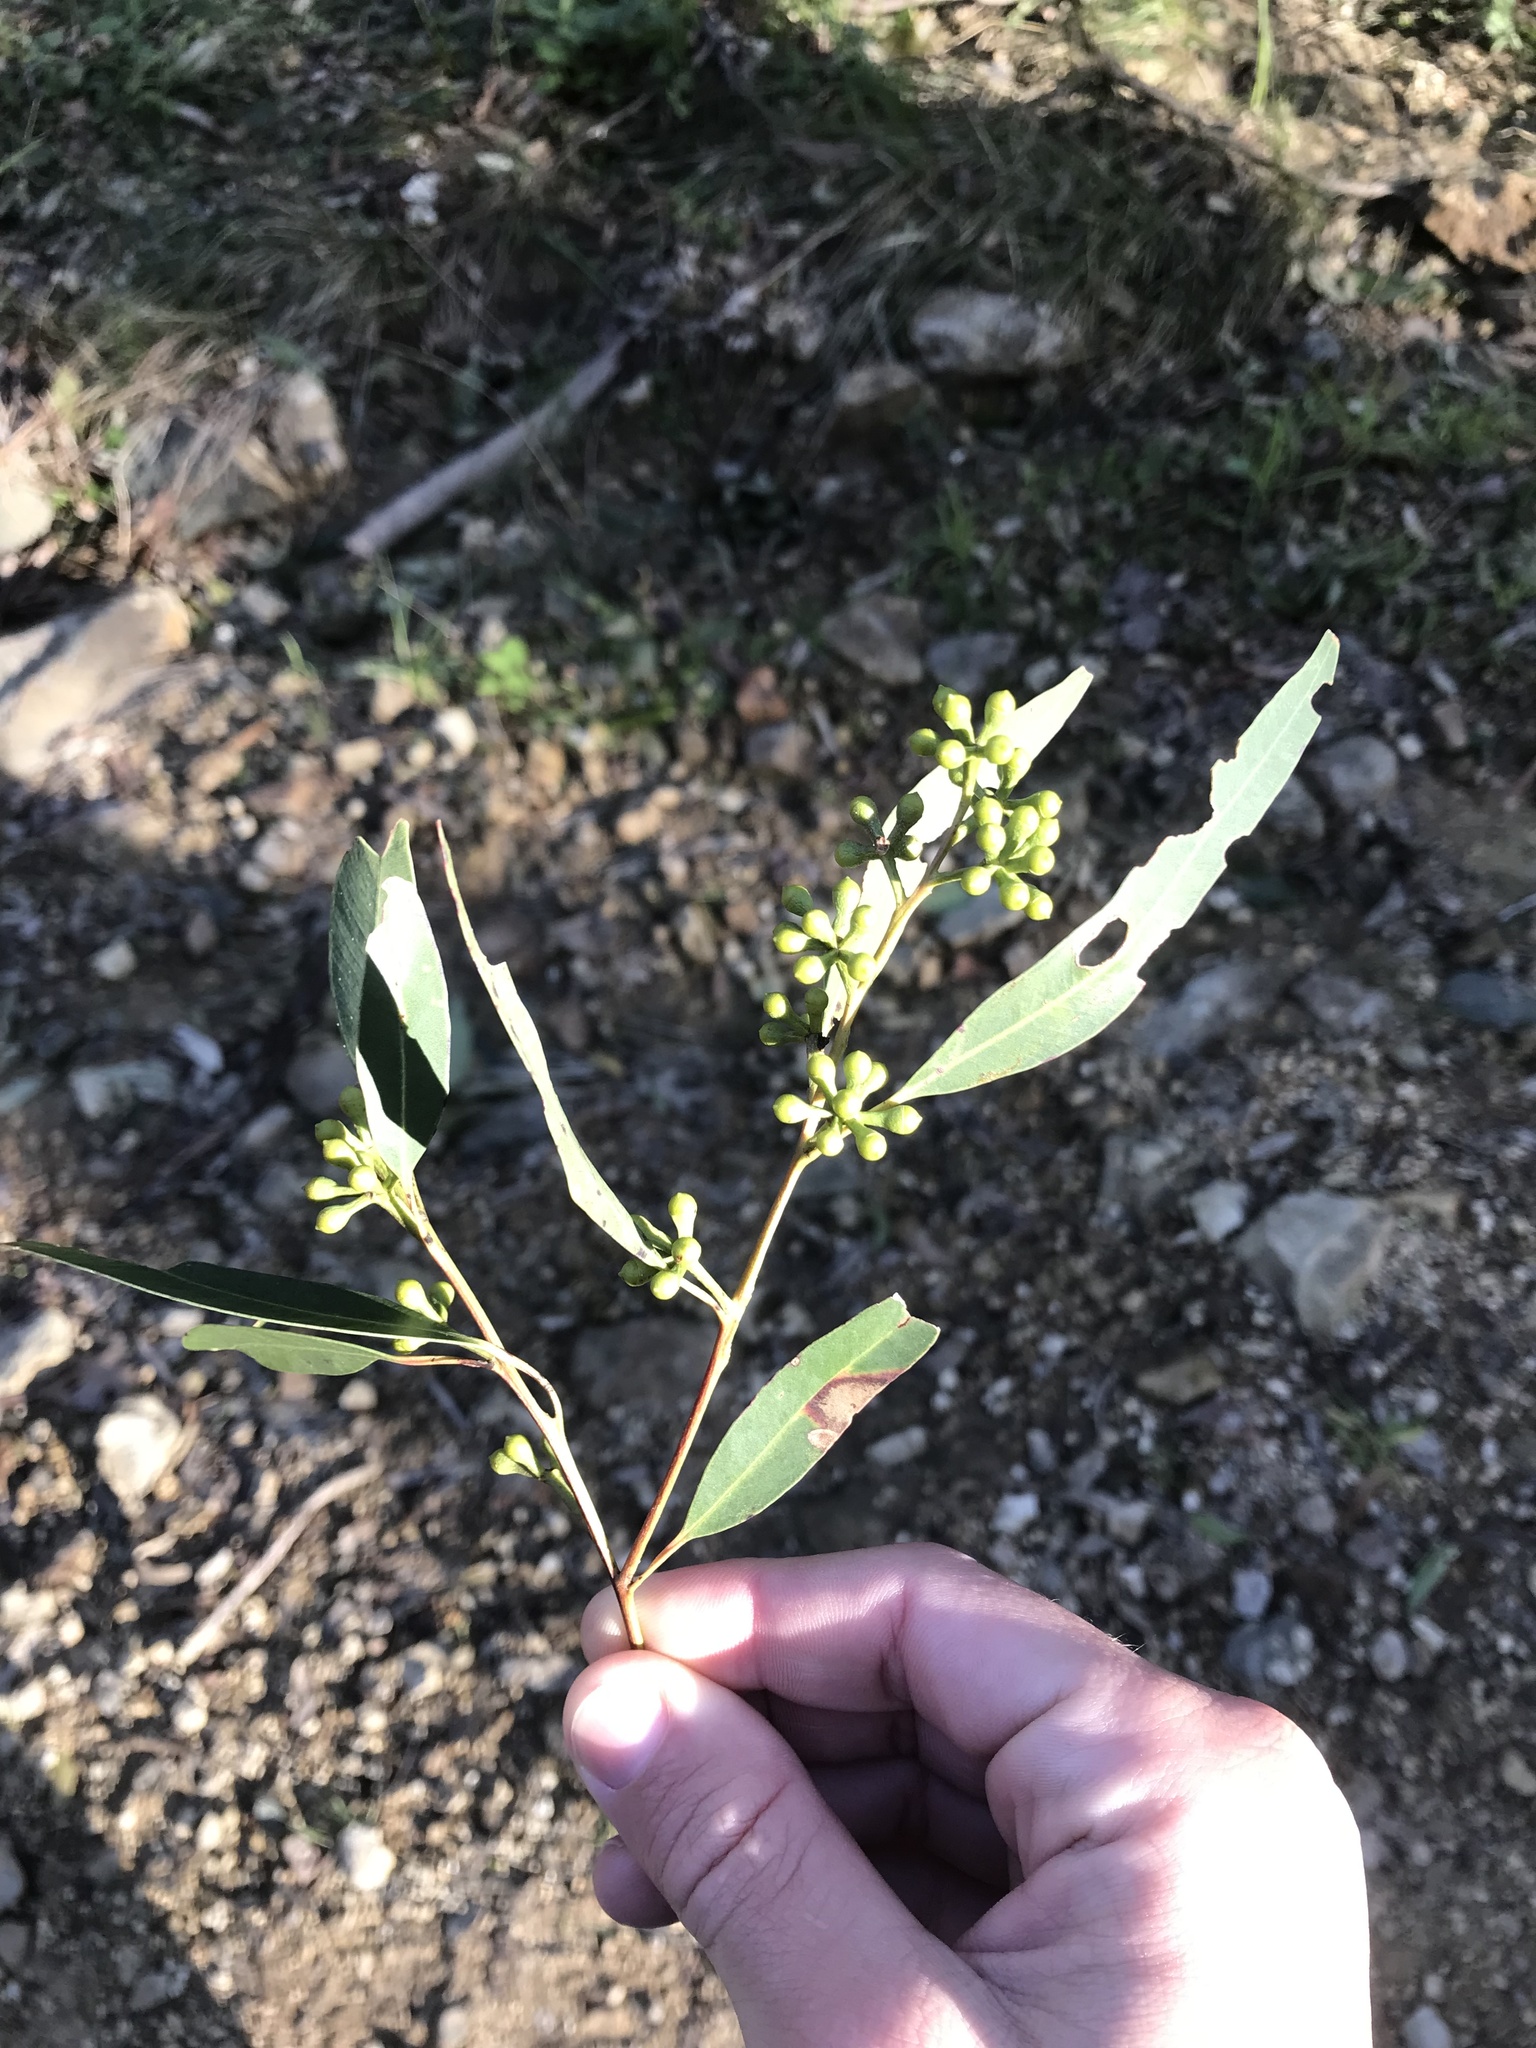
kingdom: Plantae
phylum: Tracheophyta
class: Magnoliopsida
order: Myrtales
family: Myrtaceae
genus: Eucalyptus
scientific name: Eucalyptus propinqua
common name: Grey-gum
